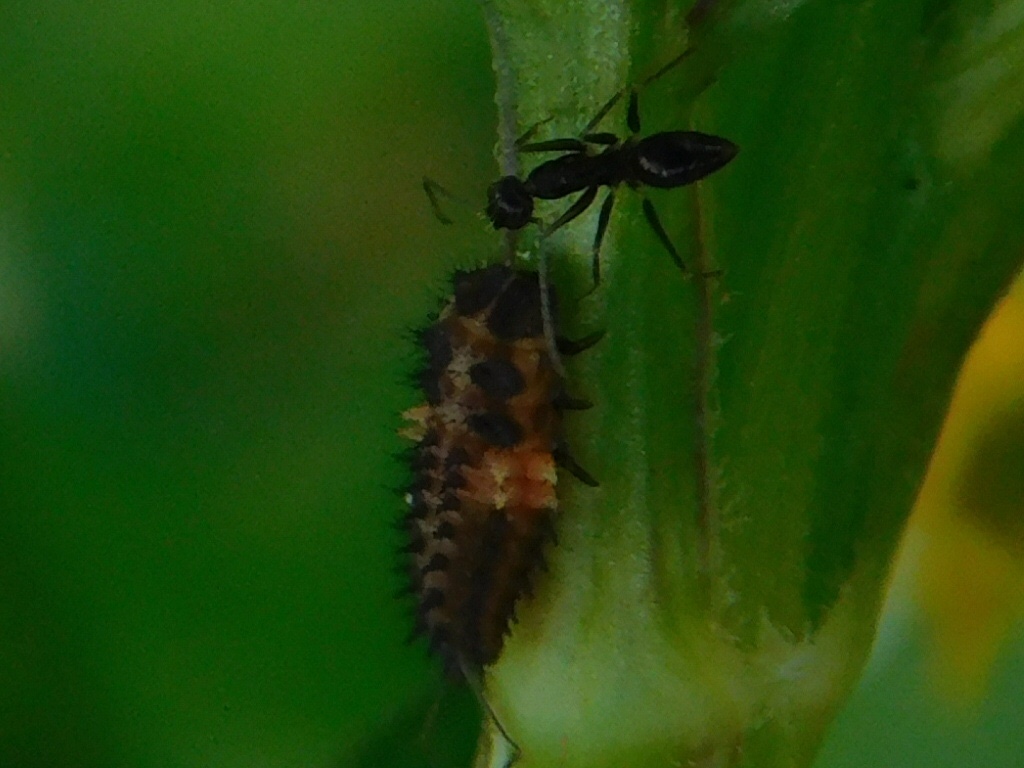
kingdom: Animalia
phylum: Arthropoda
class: Insecta
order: Hymenoptera
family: Formicidae
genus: Paratrechina
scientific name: Paratrechina longicornis
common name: Longhorned crazy ant
